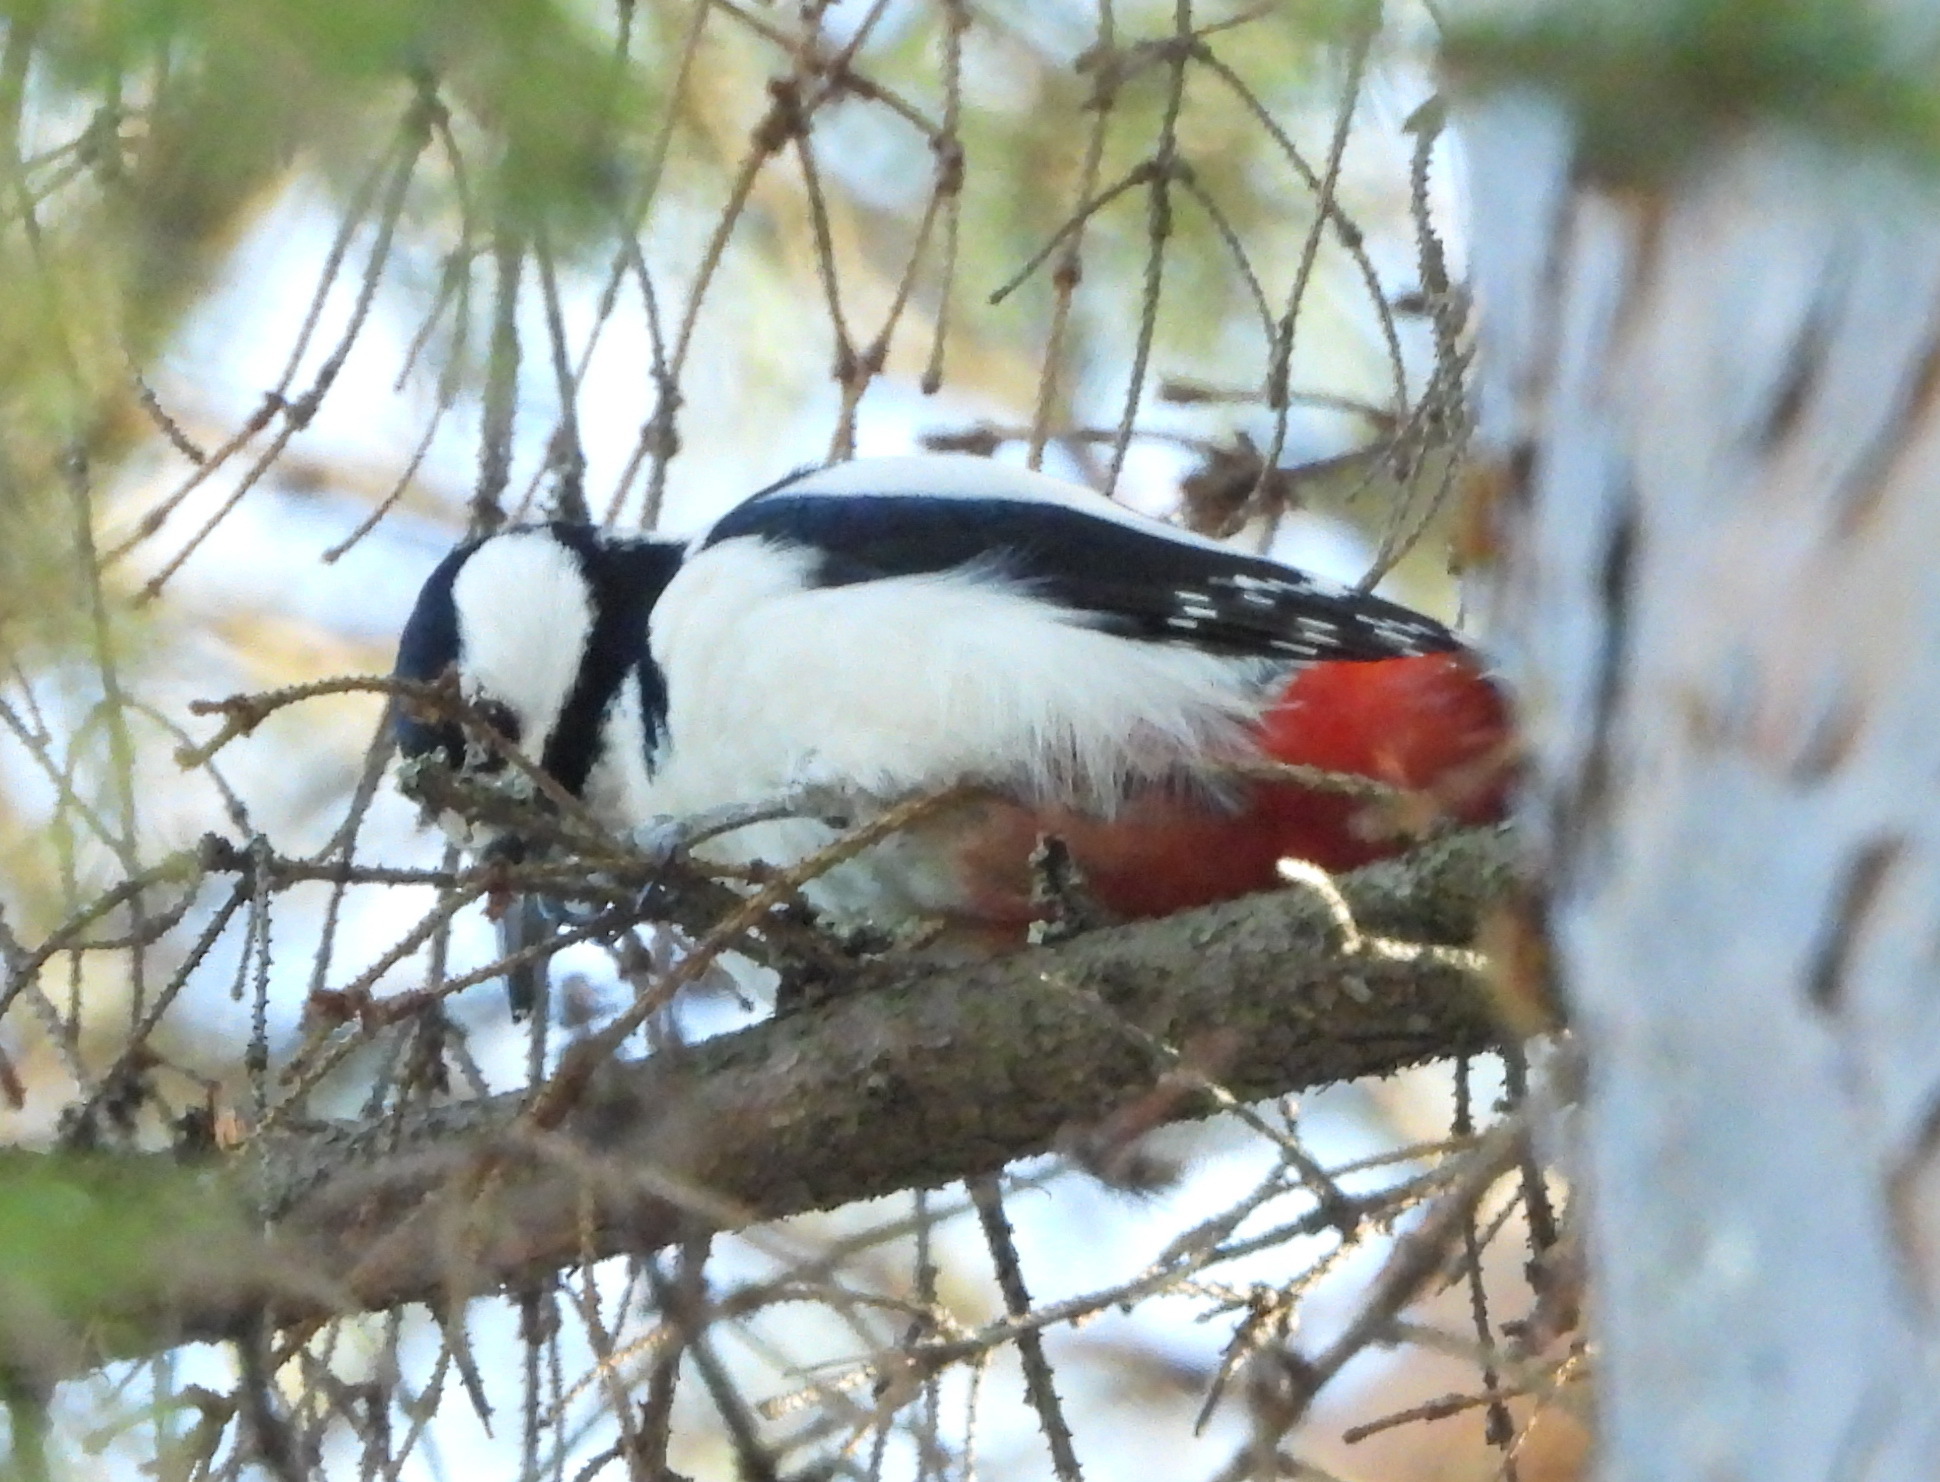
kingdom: Animalia
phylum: Chordata
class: Aves
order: Piciformes
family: Picidae
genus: Dendrocopos
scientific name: Dendrocopos major
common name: Great spotted woodpecker
